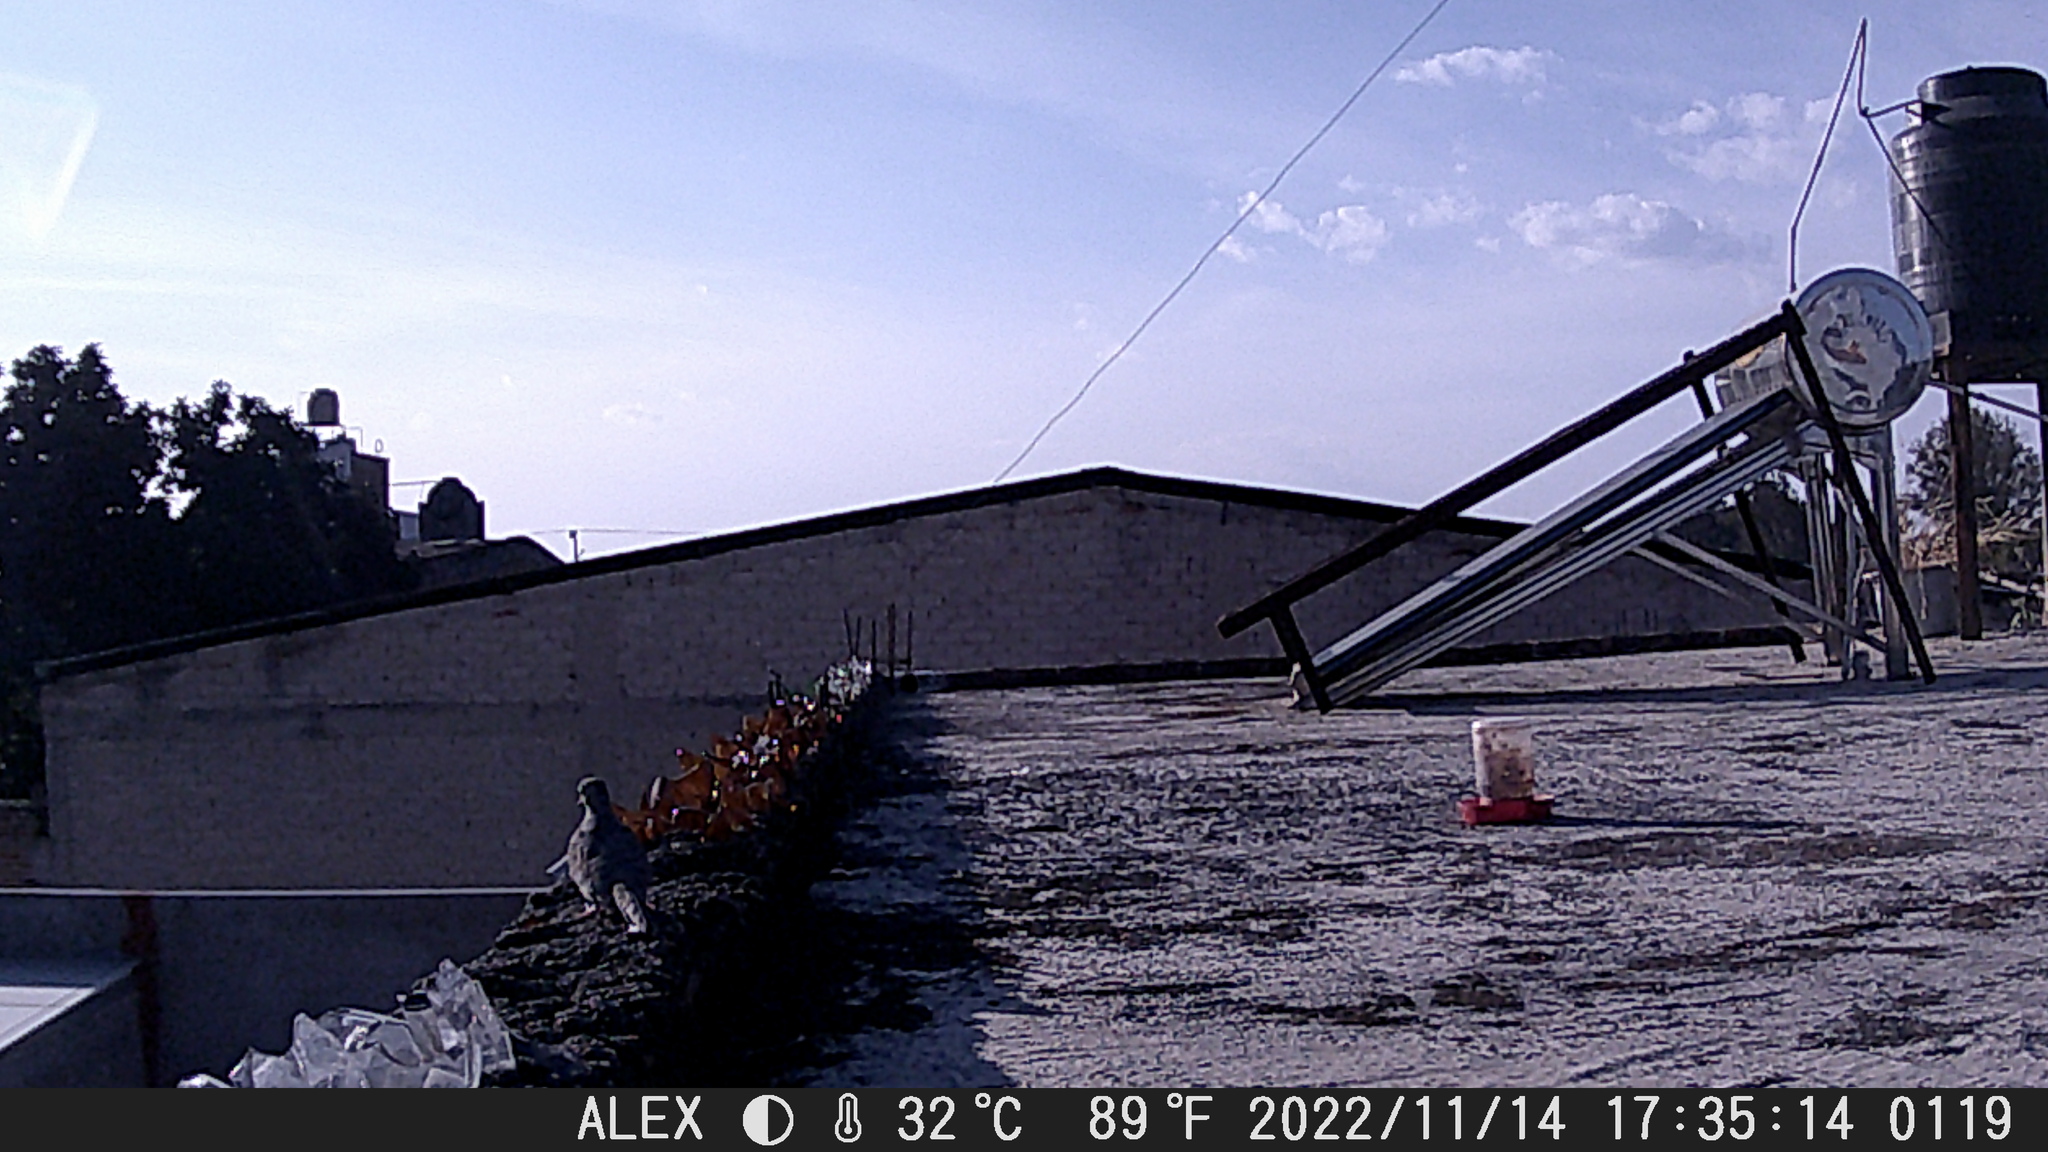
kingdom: Animalia
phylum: Chordata
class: Aves
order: Columbiformes
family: Columbidae
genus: Columbina
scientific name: Columbina inca
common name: Inca dove
